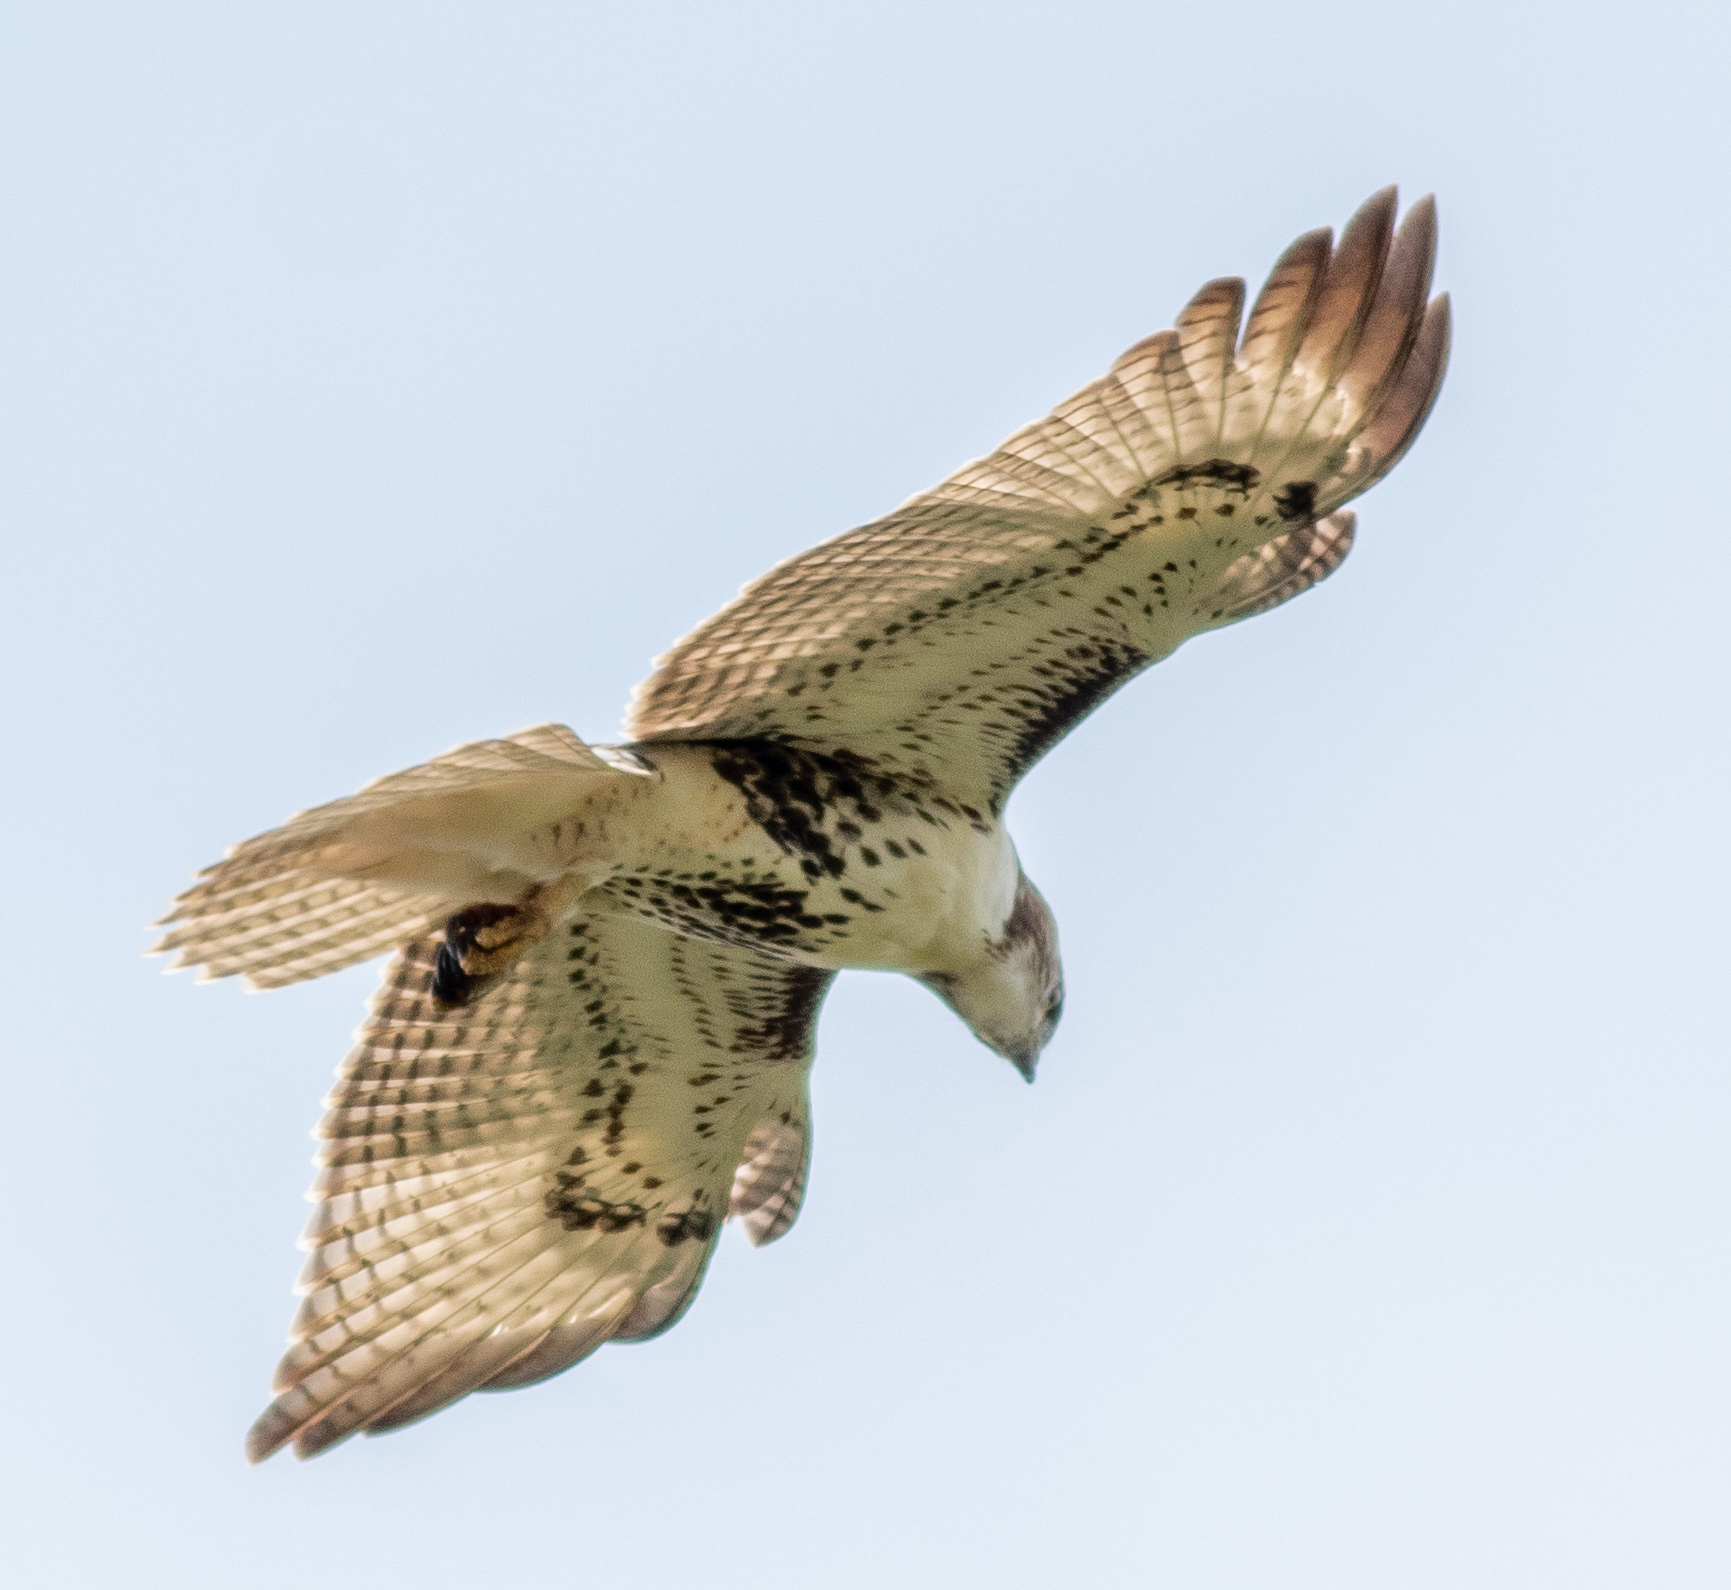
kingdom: Animalia
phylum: Chordata
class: Aves
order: Accipitriformes
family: Accipitridae
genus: Buteo
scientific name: Buteo jamaicensis
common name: Red-tailed hawk
